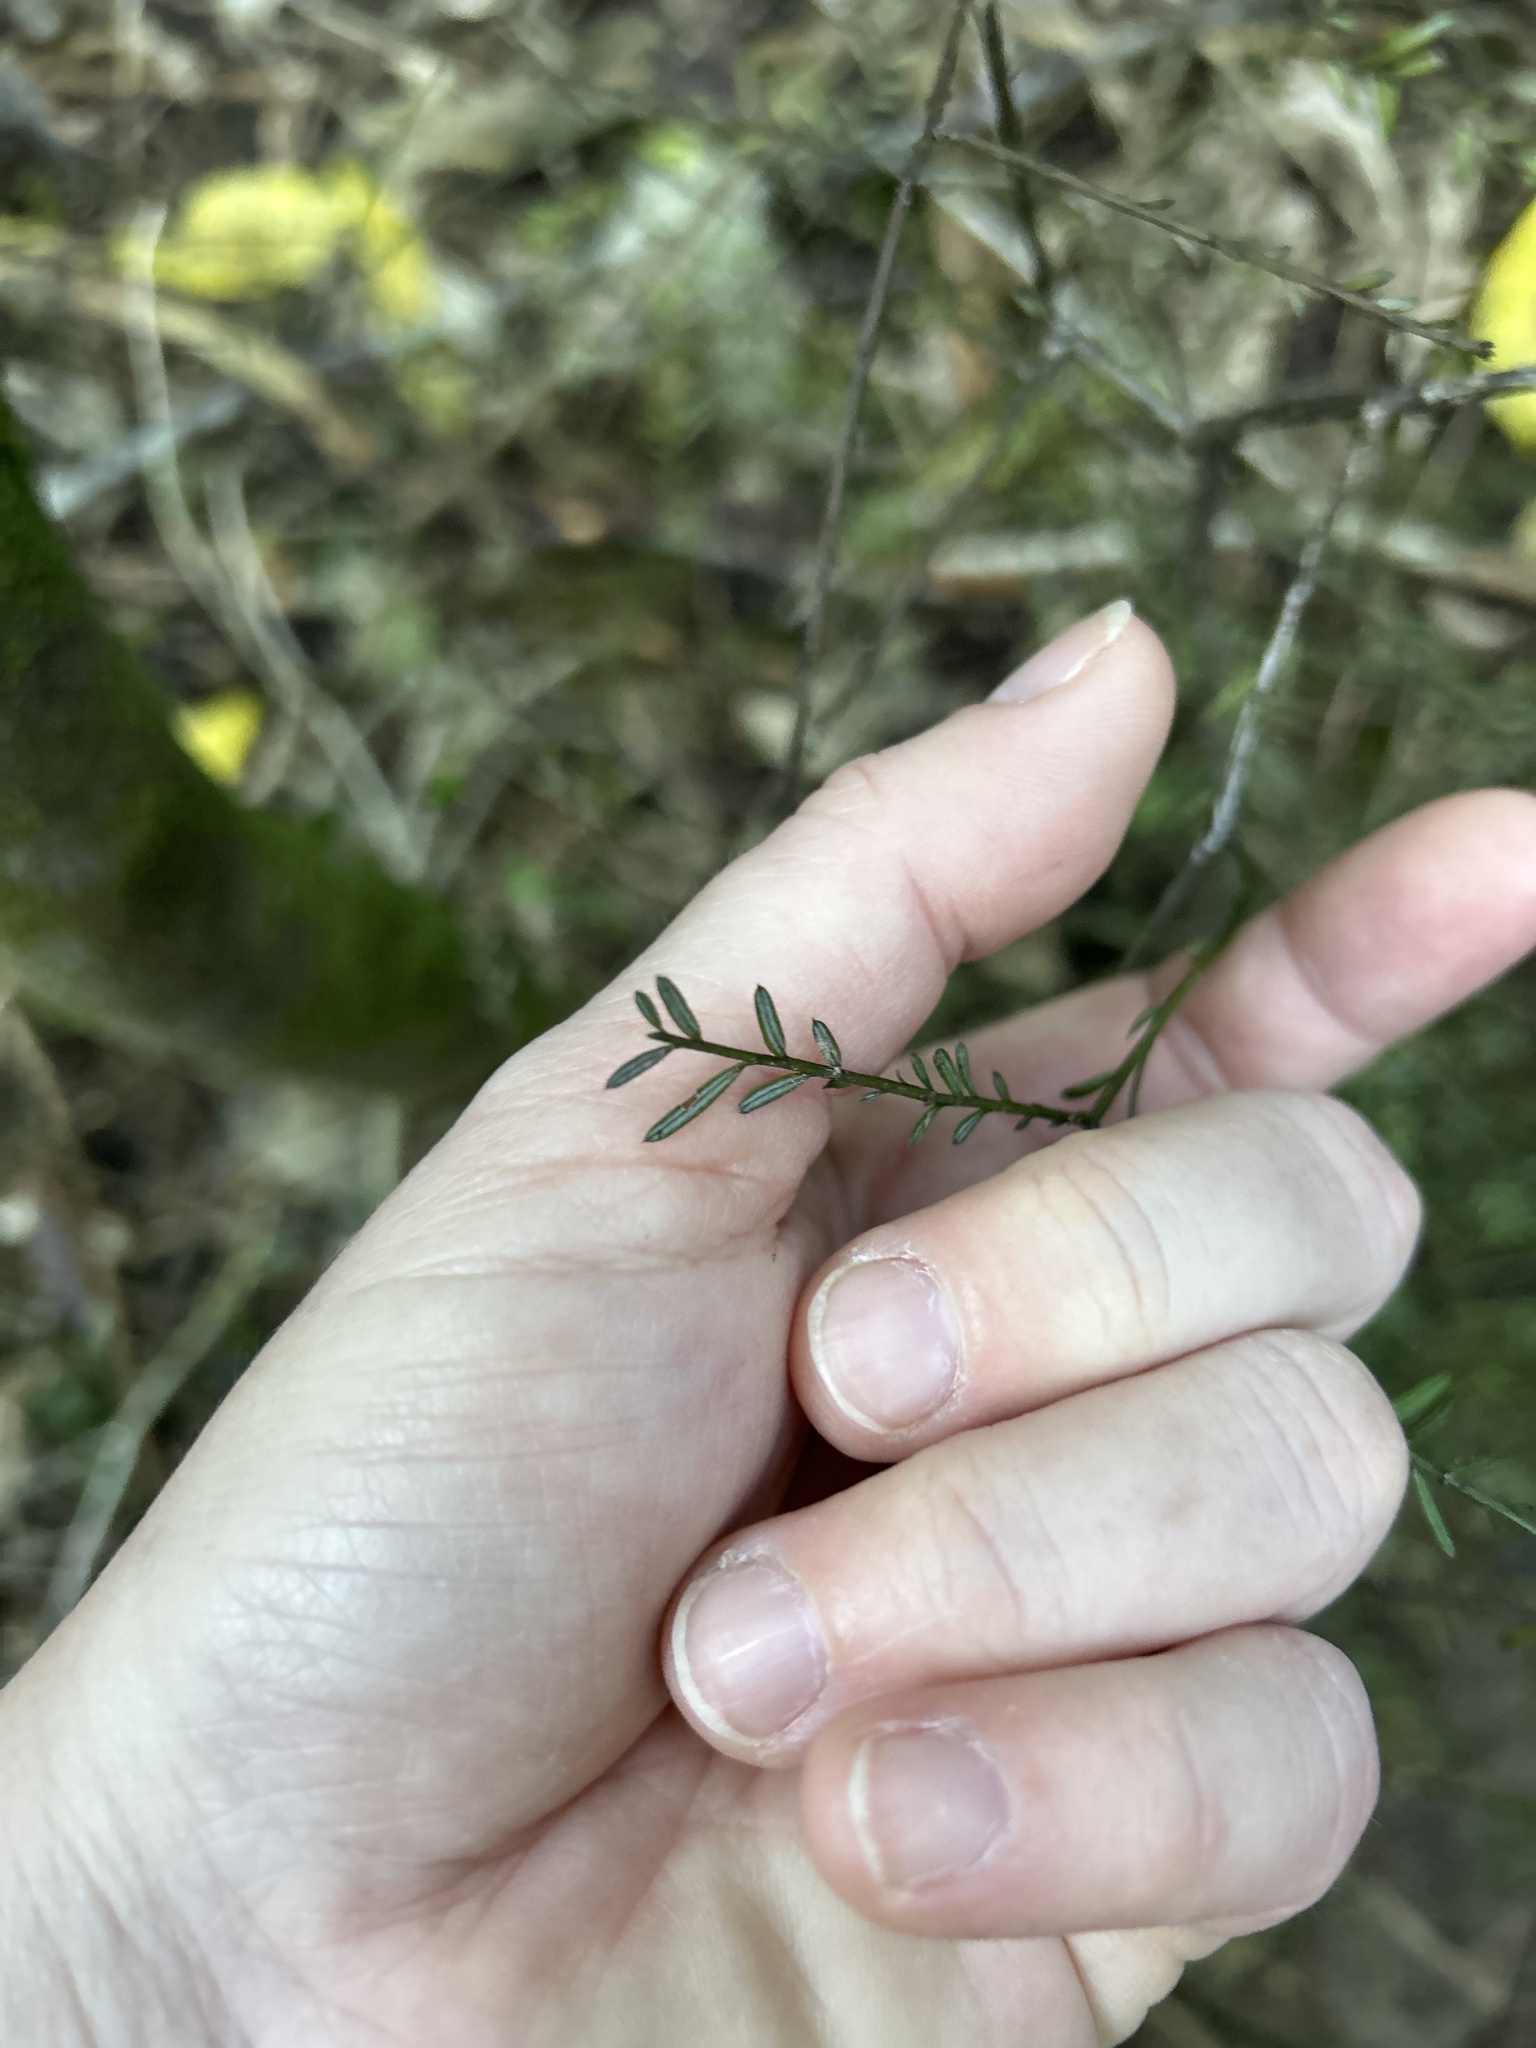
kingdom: Plantae
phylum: Tracheophyta
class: Pinopsida
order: Pinales
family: Podocarpaceae
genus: Prumnopitys
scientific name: Prumnopitys taxifolia
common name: Matai
